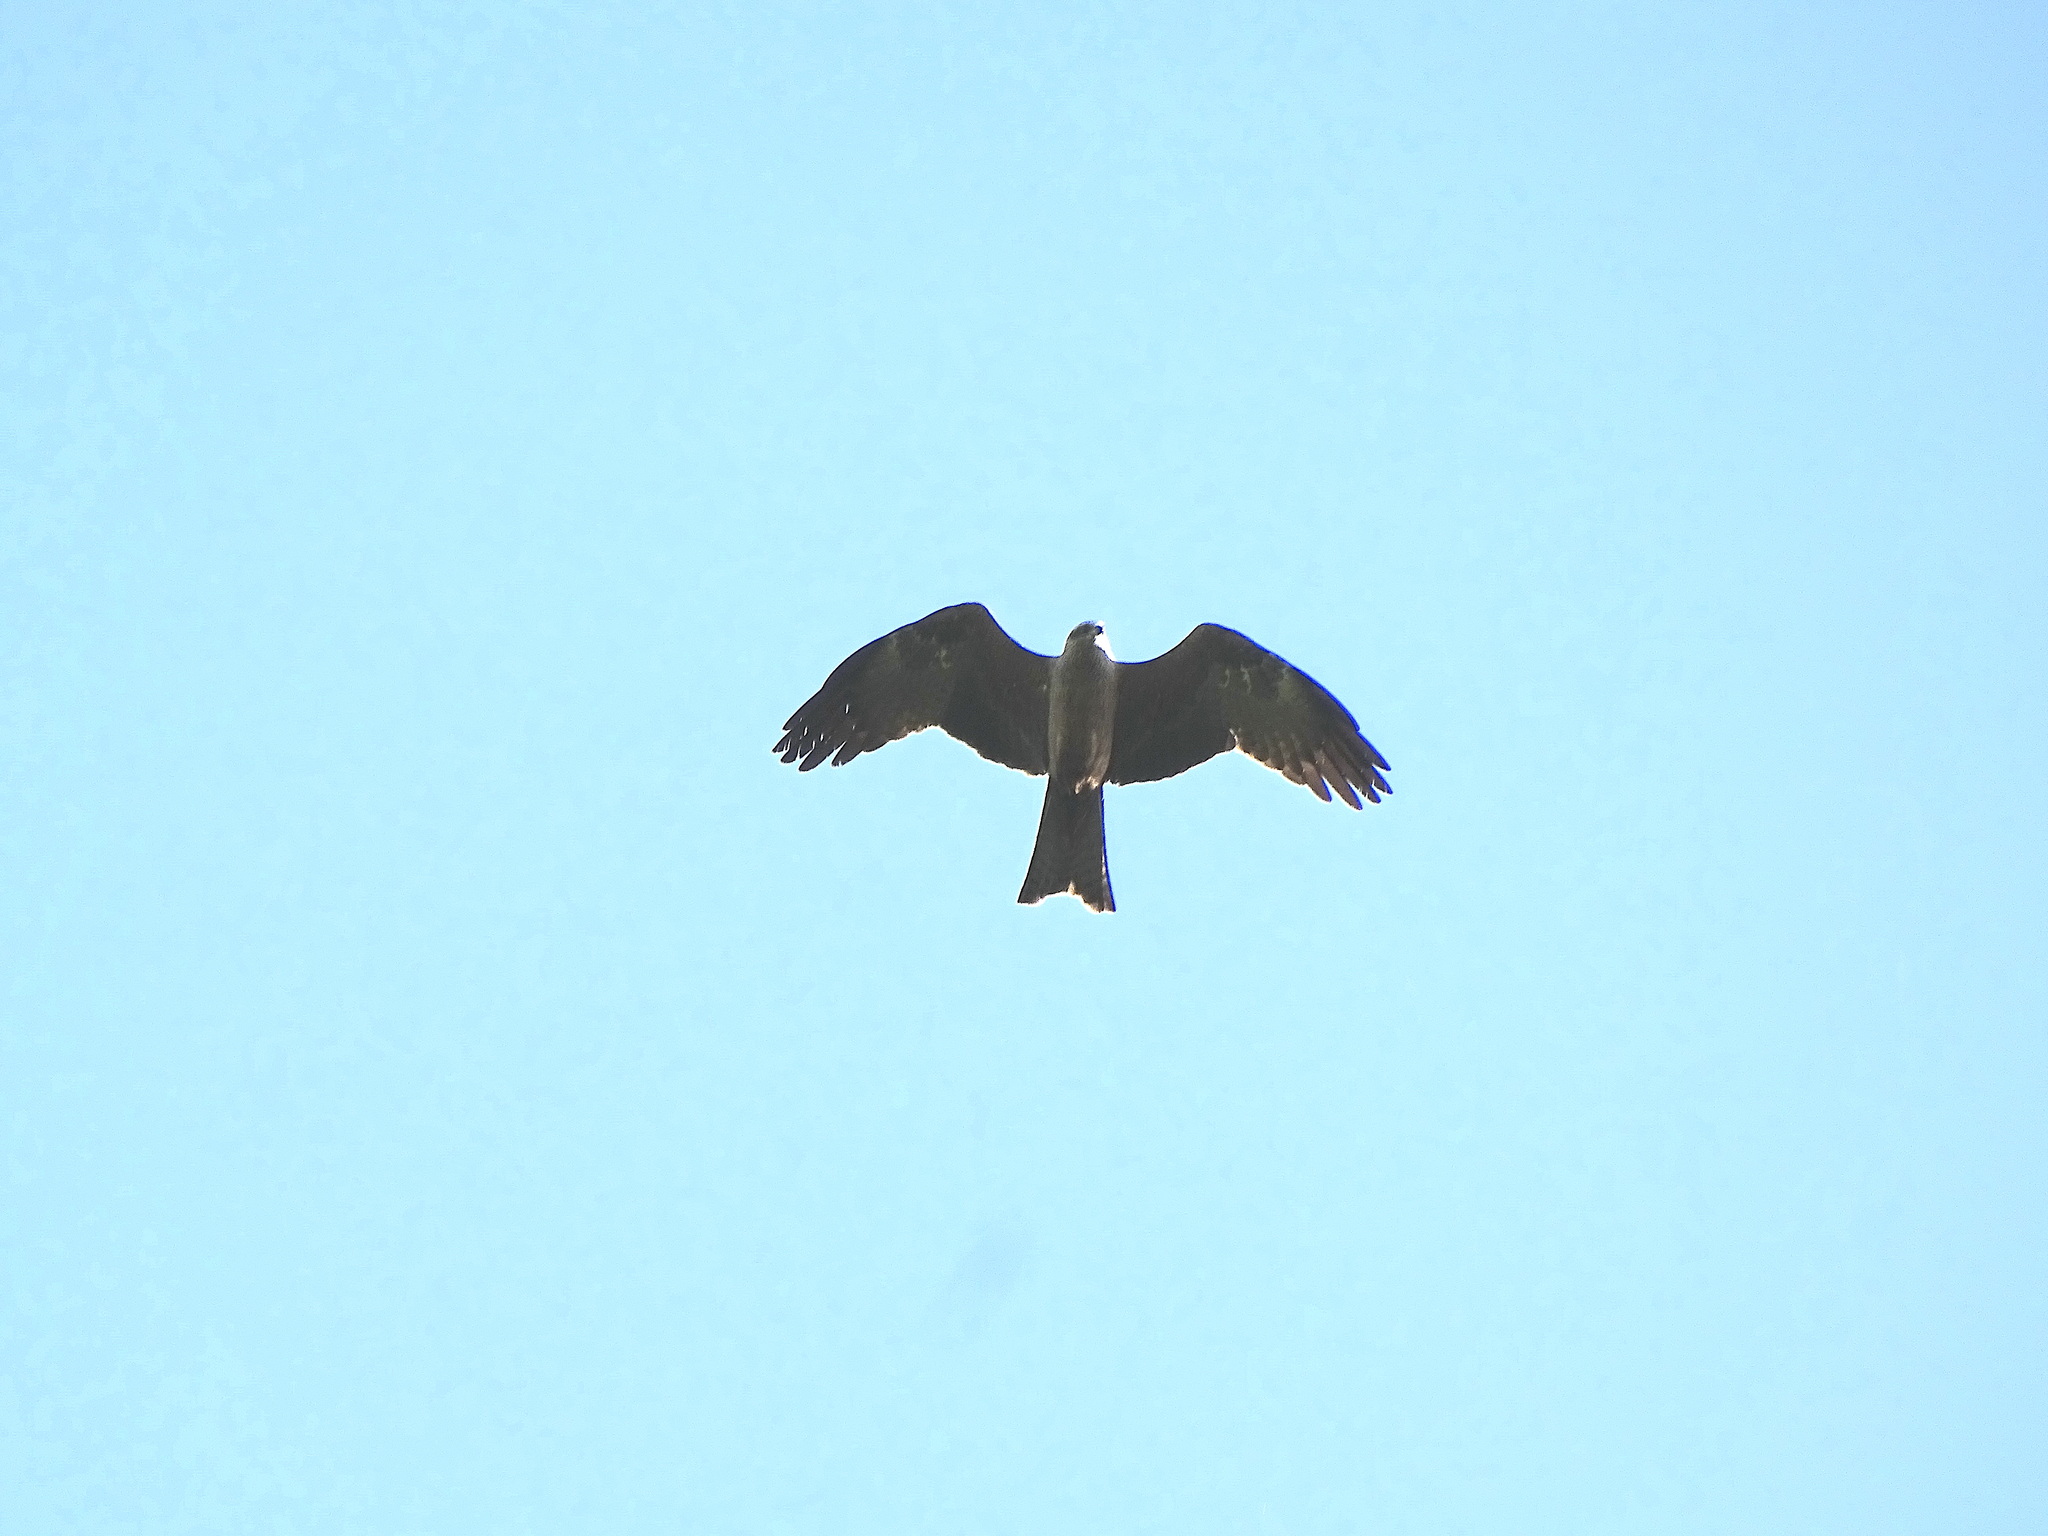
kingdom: Animalia
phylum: Chordata
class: Aves
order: Accipitriformes
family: Accipitridae
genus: Milvus
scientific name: Milvus migrans
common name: Black kite
